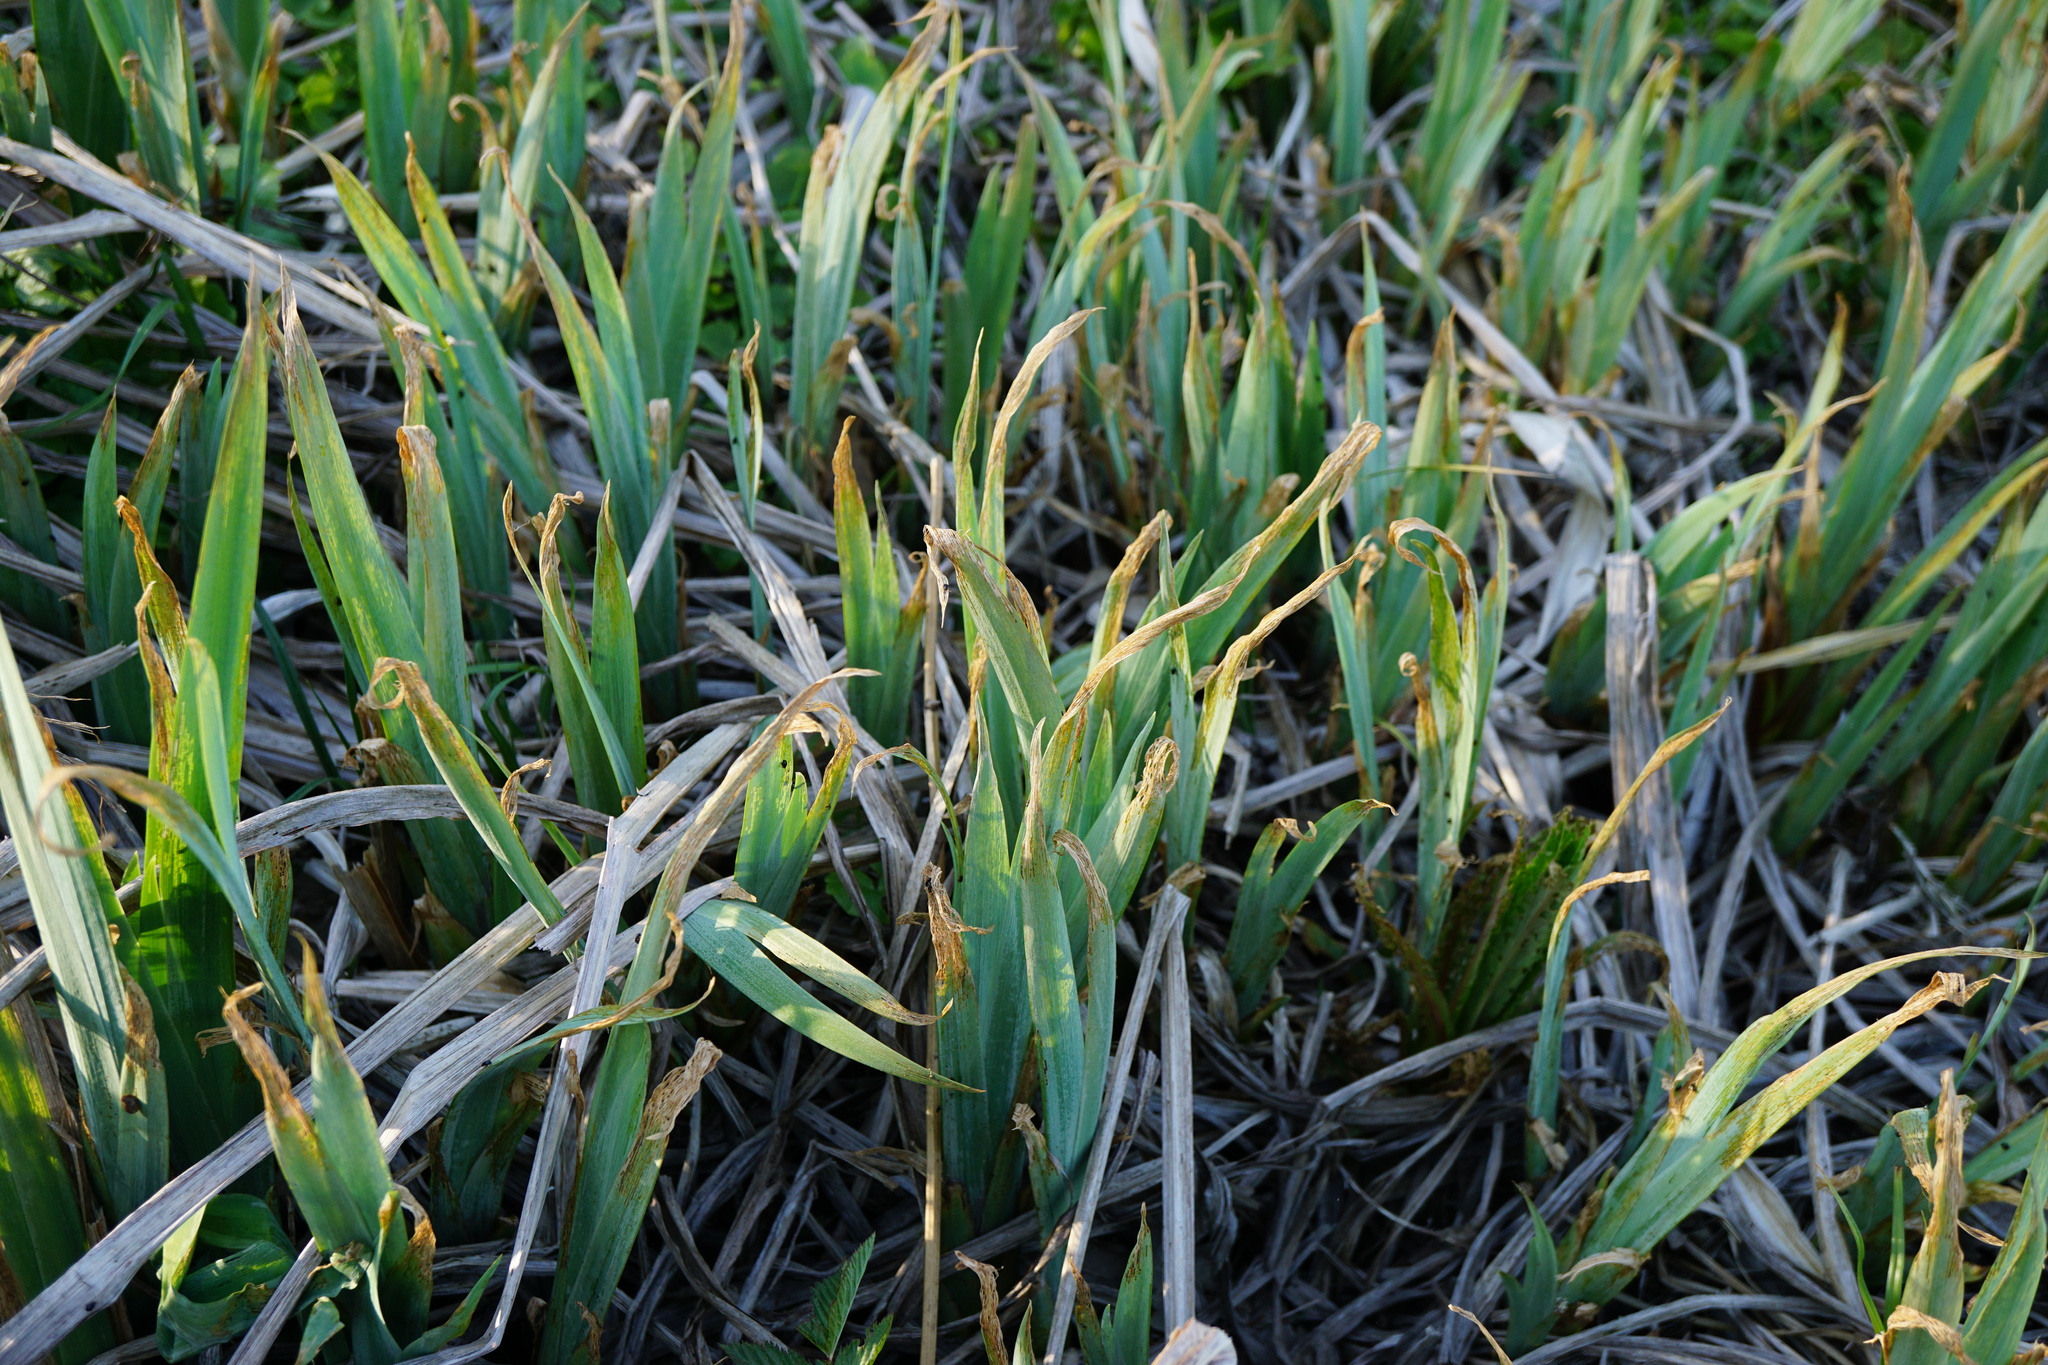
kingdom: Plantae
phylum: Tracheophyta
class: Liliopsida
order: Asparagales
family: Iridaceae
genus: Iris
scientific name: Iris pseudacorus
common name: Yellow flag
